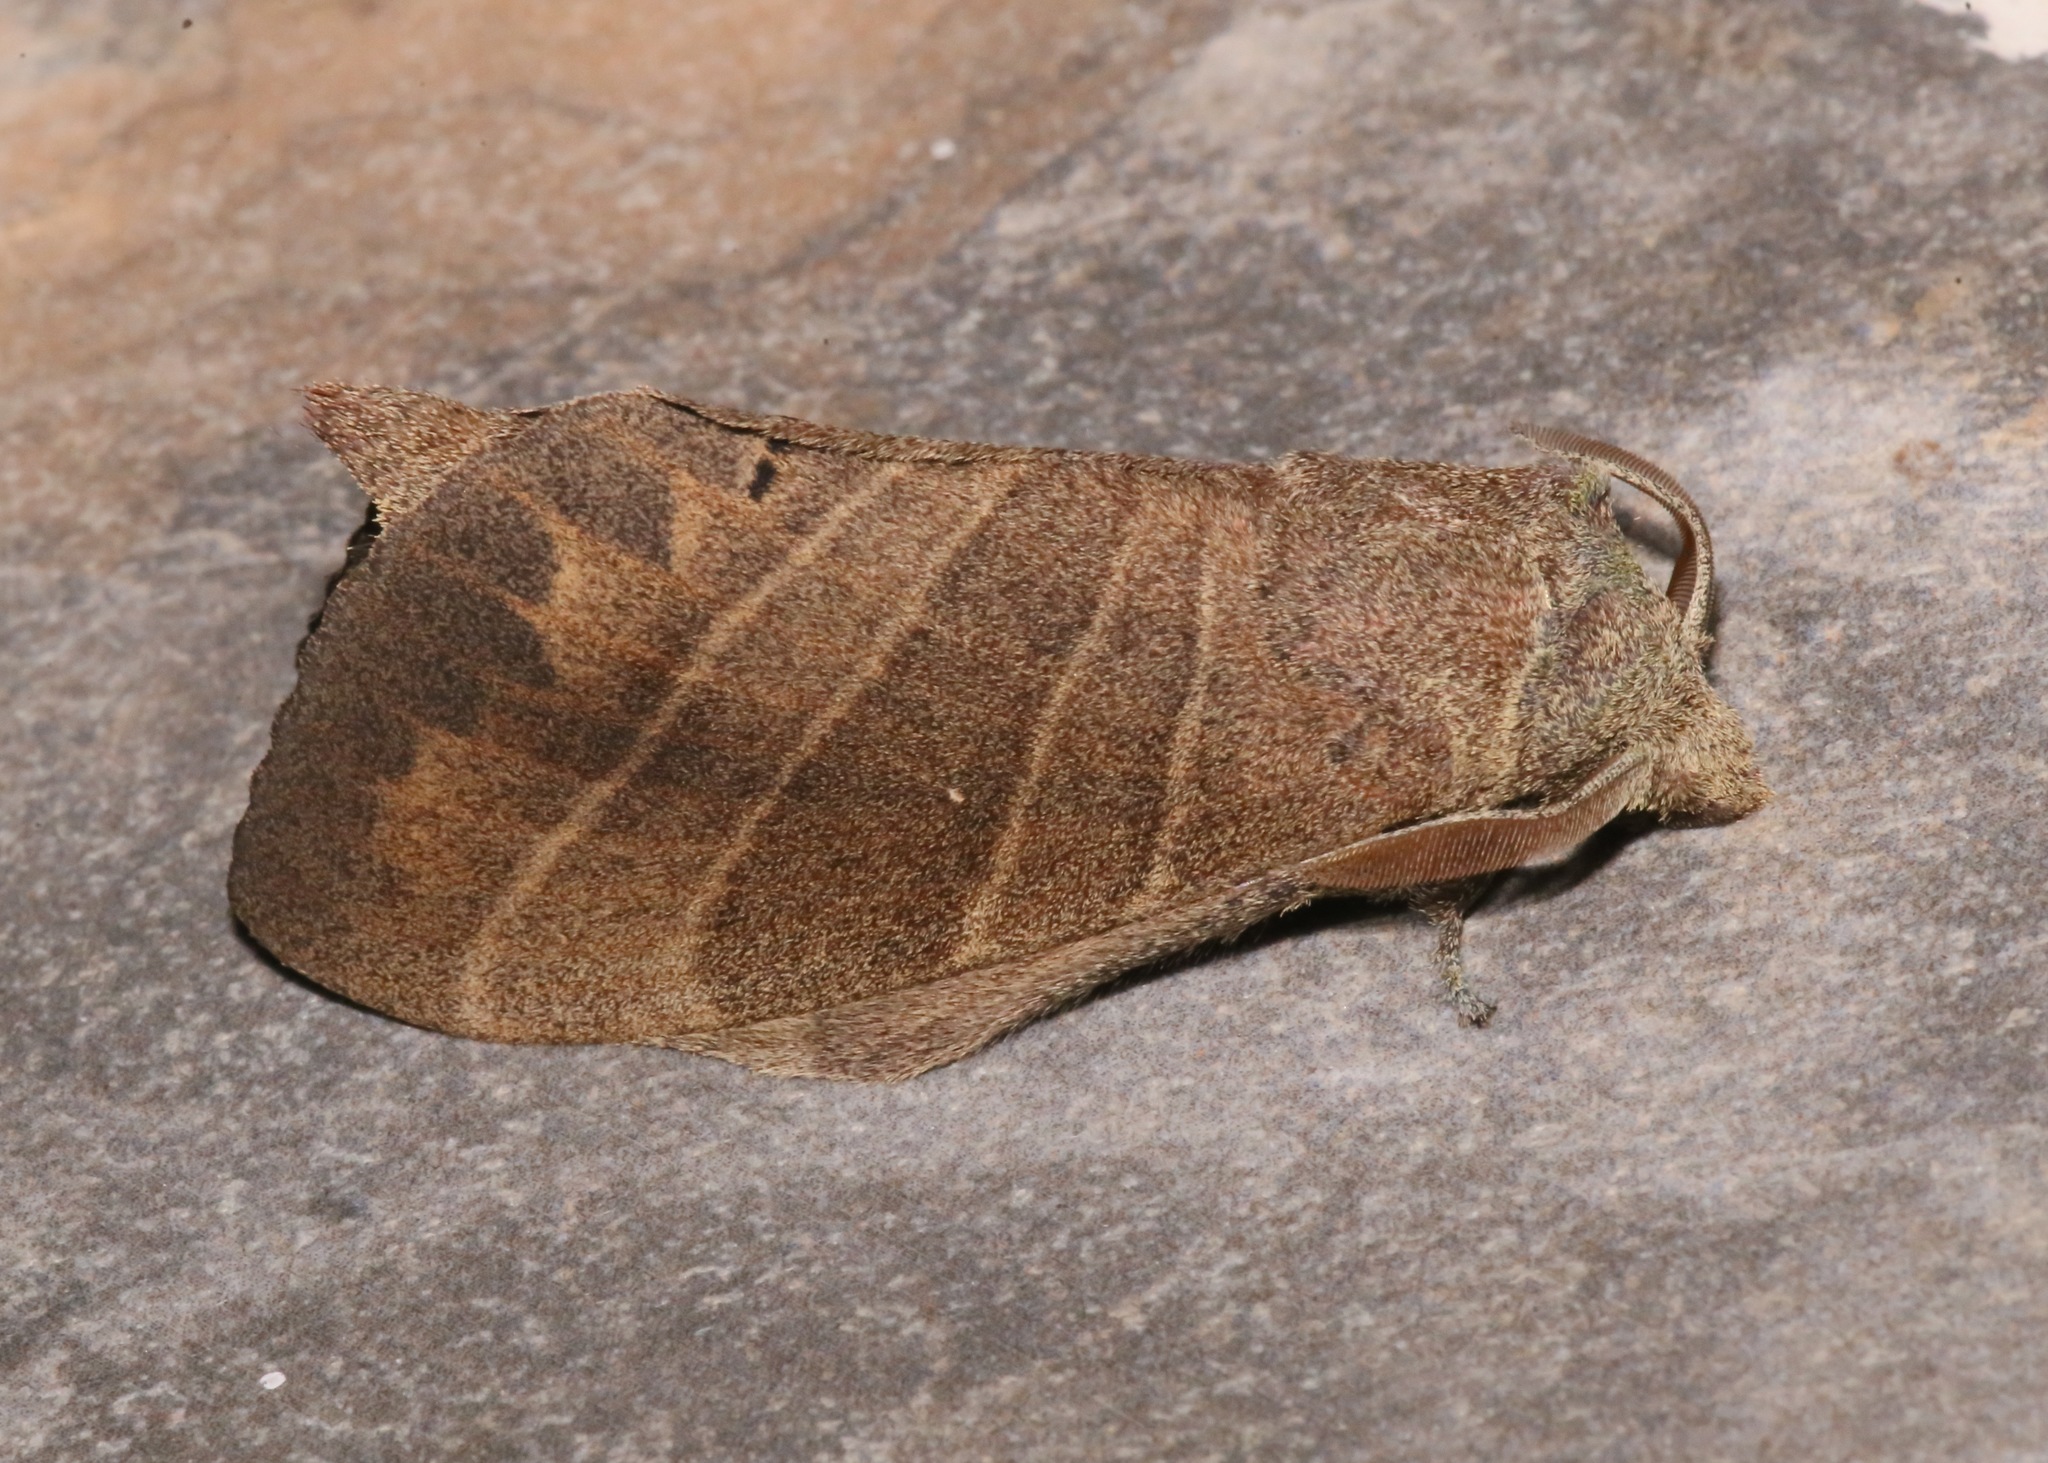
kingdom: Animalia
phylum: Arthropoda
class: Insecta
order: Lepidoptera
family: Lasiocampidae
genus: Prorifrons
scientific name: Prorifrons lineata
